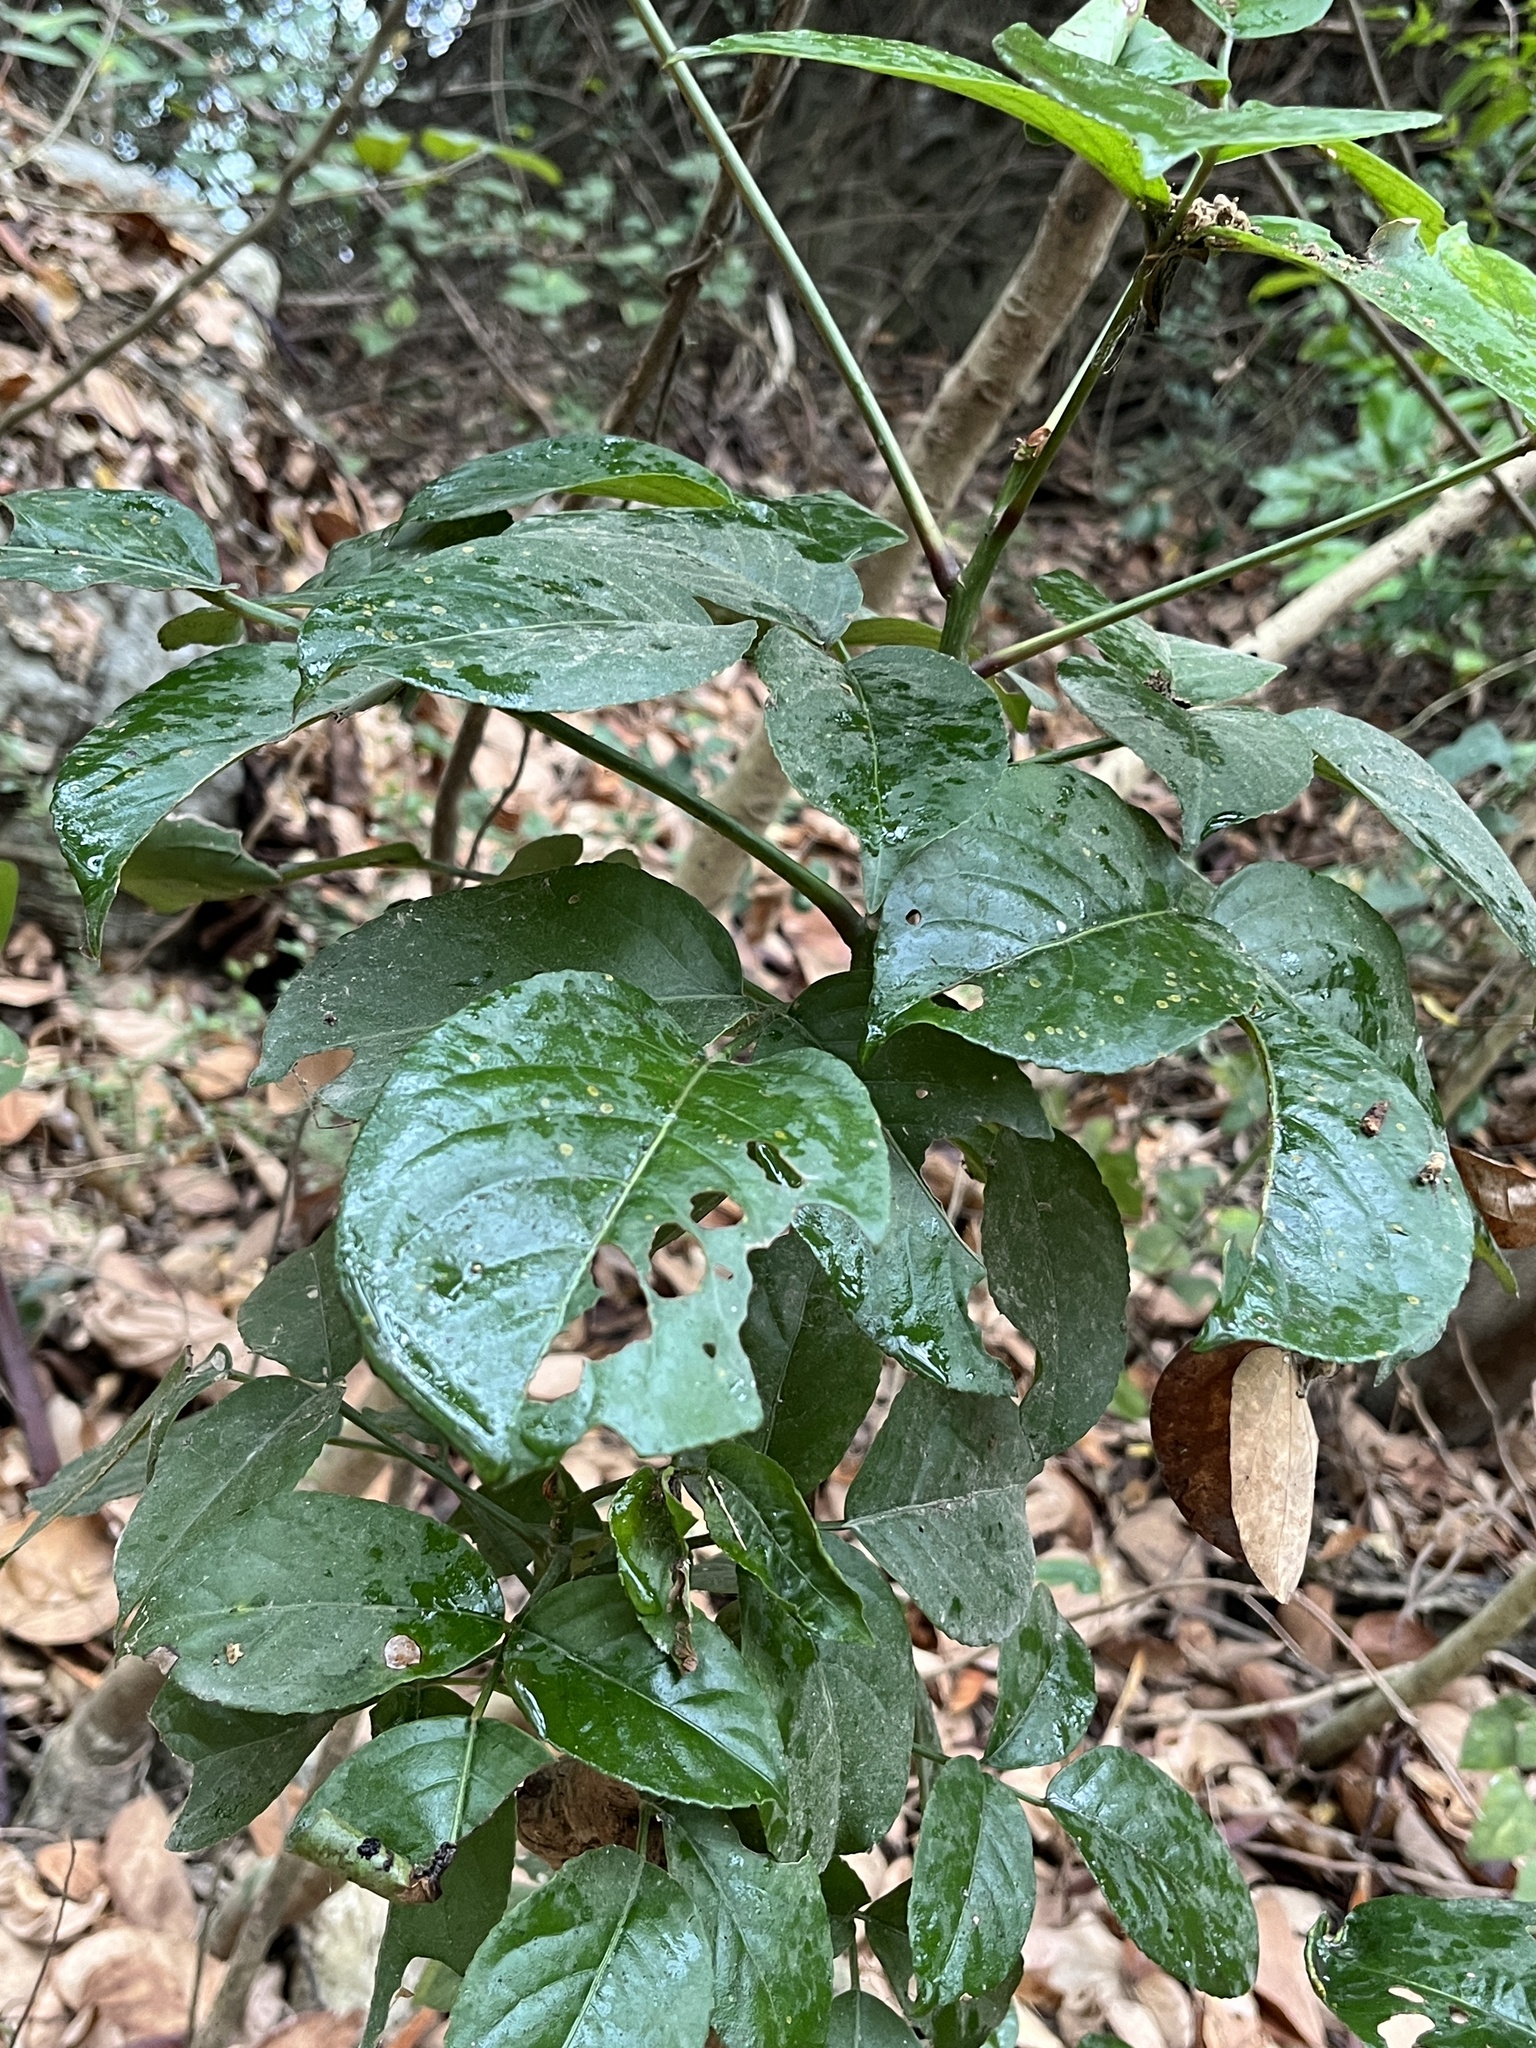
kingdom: Plantae
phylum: Tracheophyta
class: Magnoliopsida
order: Malpighiales
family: Phyllanthaceae
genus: Bischofia
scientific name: Bischofia javanica
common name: Javanese bishopwood
